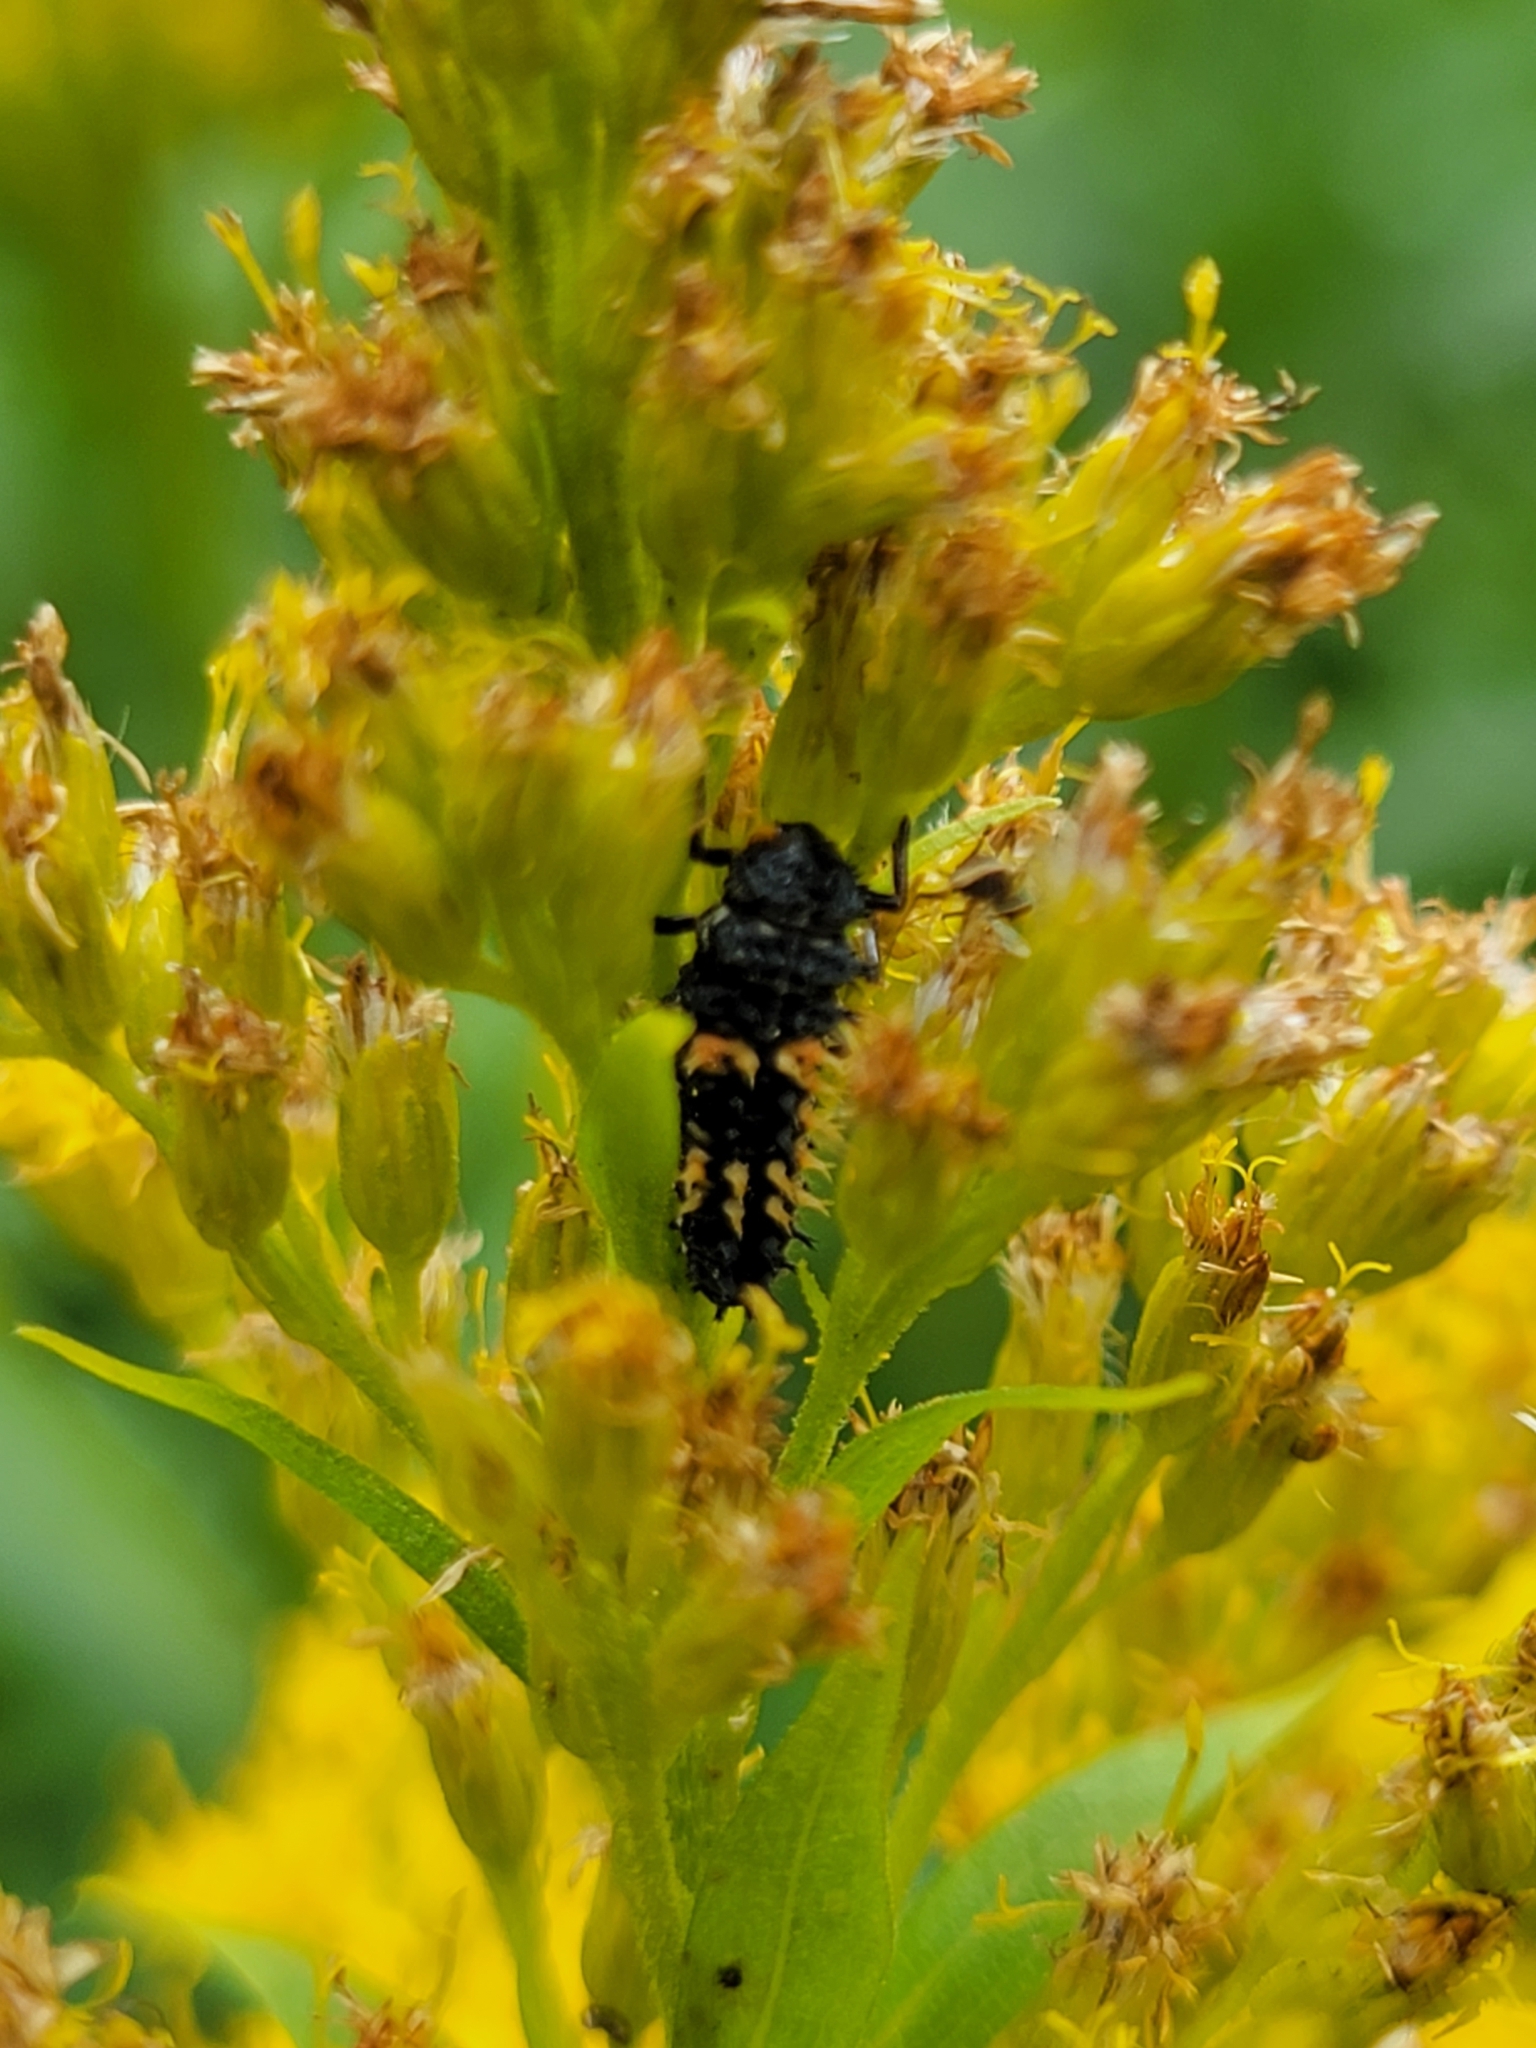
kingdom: Animalia
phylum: Arthropoda
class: Insecta
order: Coleoptera
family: Coccinellidae
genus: Harmonia
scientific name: Harmonia axyridis
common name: Harlequin ladybird
